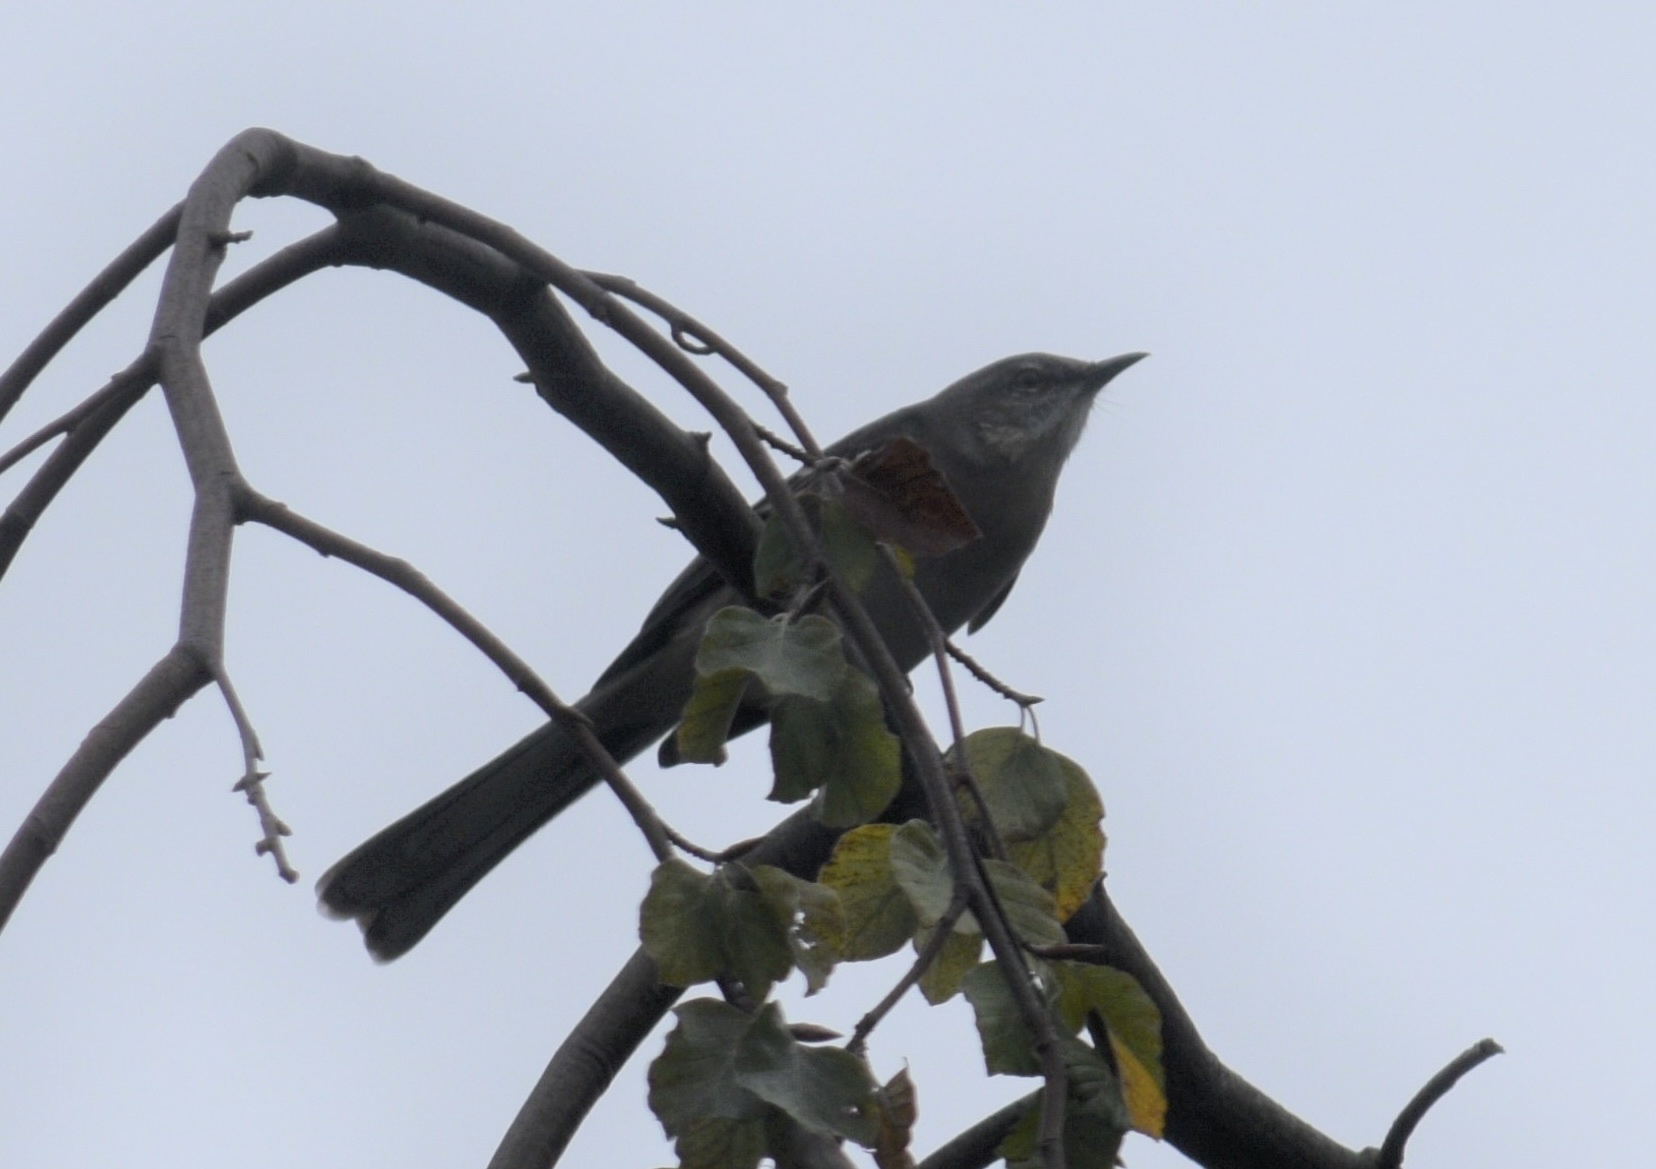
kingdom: Animalia
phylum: Chordata
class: Aves
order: Passeriformes
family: Mimidae
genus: Mimus
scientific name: Mimus polyglottos
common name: Northern mockingbird
